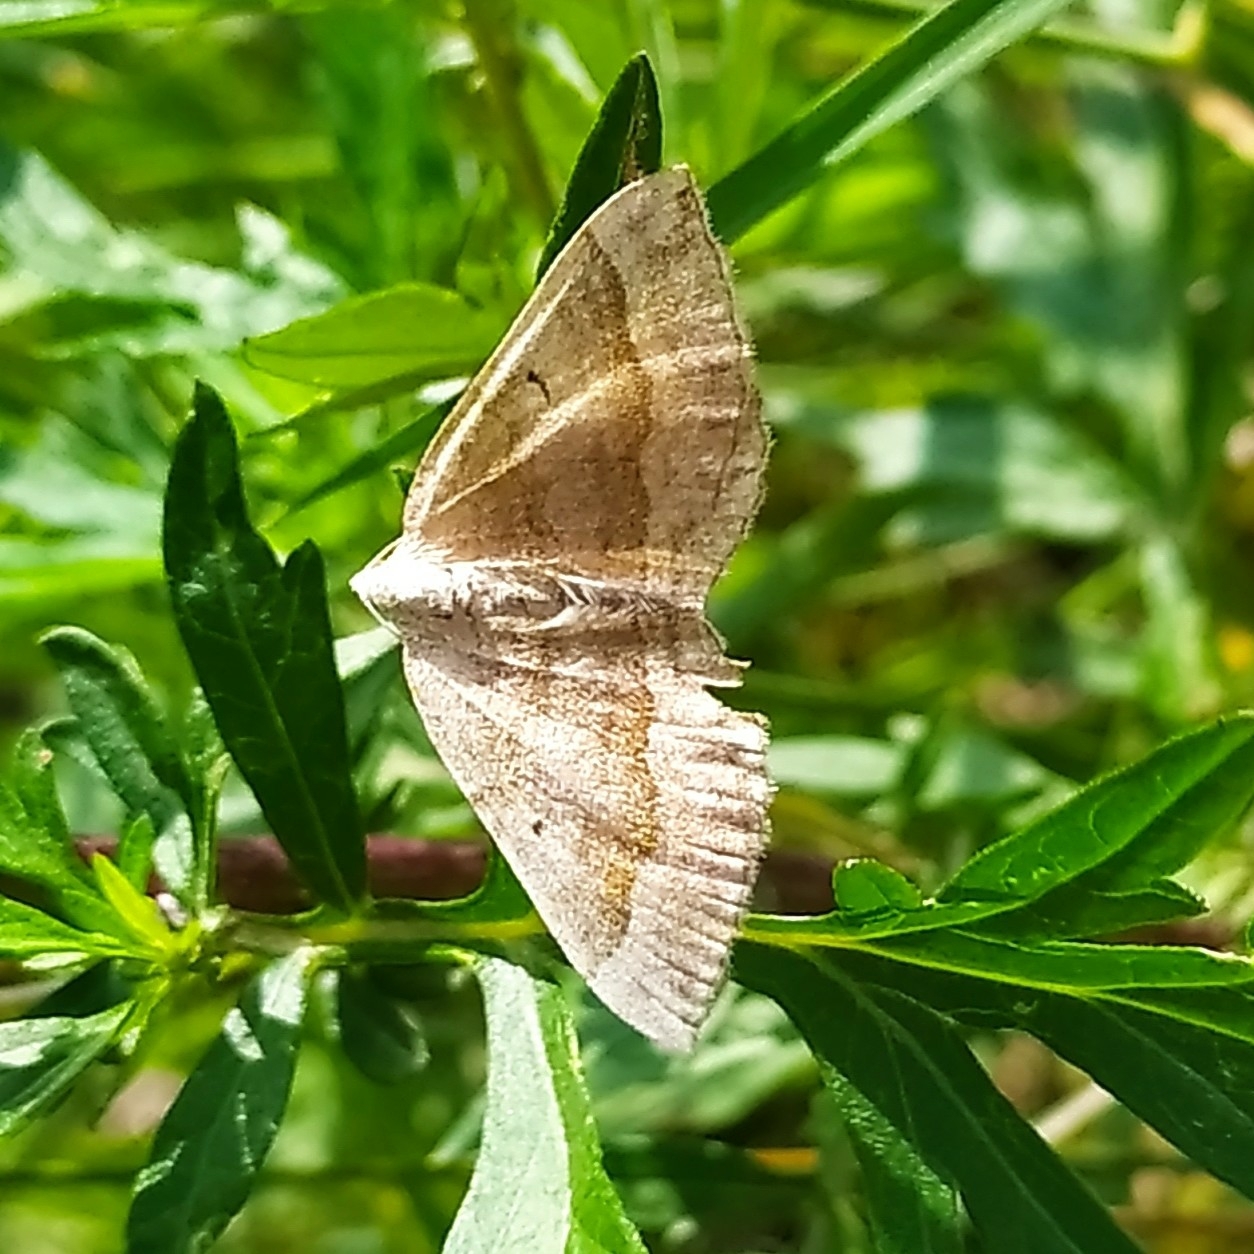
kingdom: Animalia
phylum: Arthropoda
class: Insecta
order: Lepidoptera
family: Geometridae
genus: Scotopteryx
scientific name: Scotopteryx chenopodiata
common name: Shaded broad-bar
